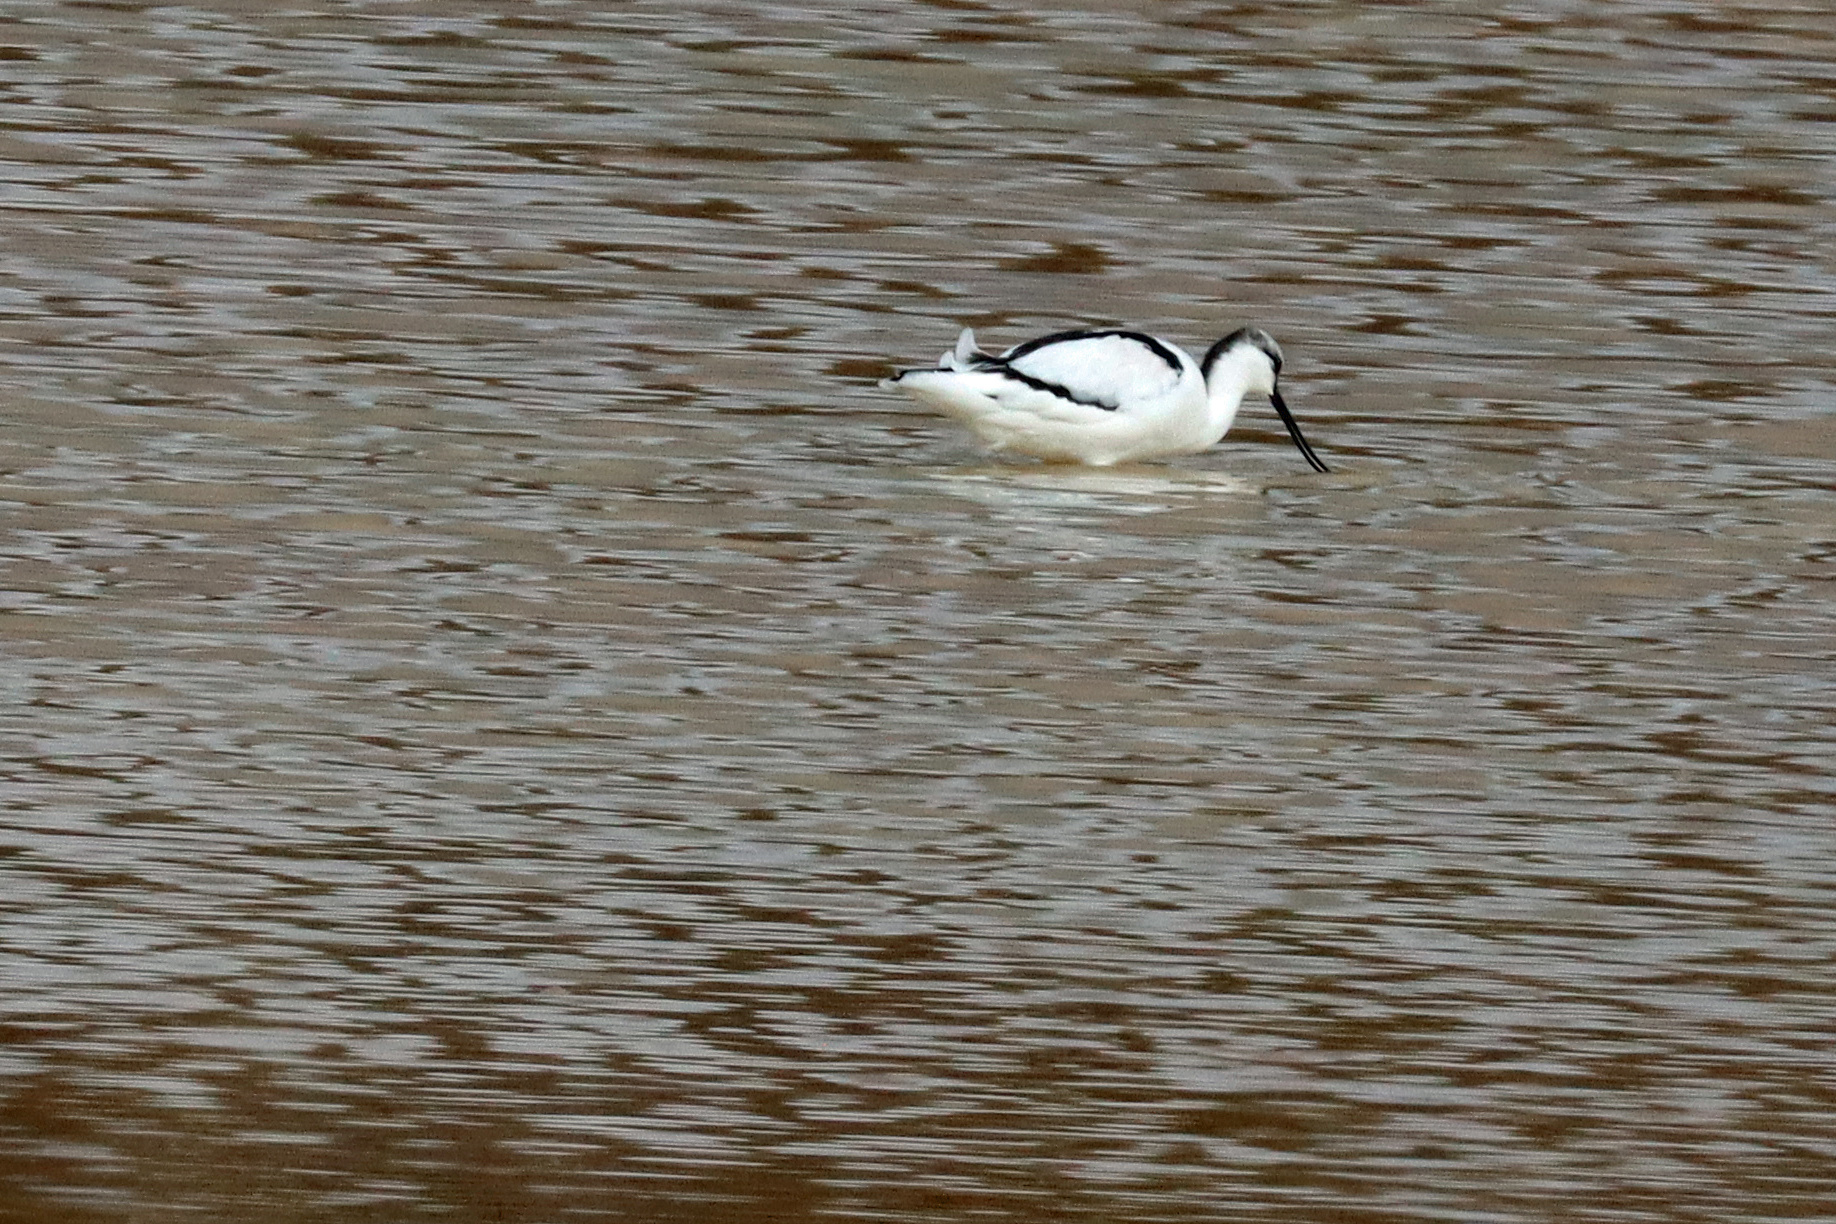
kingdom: Animalia
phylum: Chordata
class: Aves
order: Charadriiformes
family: Recurvirostridae
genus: Recurvirostra
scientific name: Recurvirostra avosetta
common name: Pied avocet
